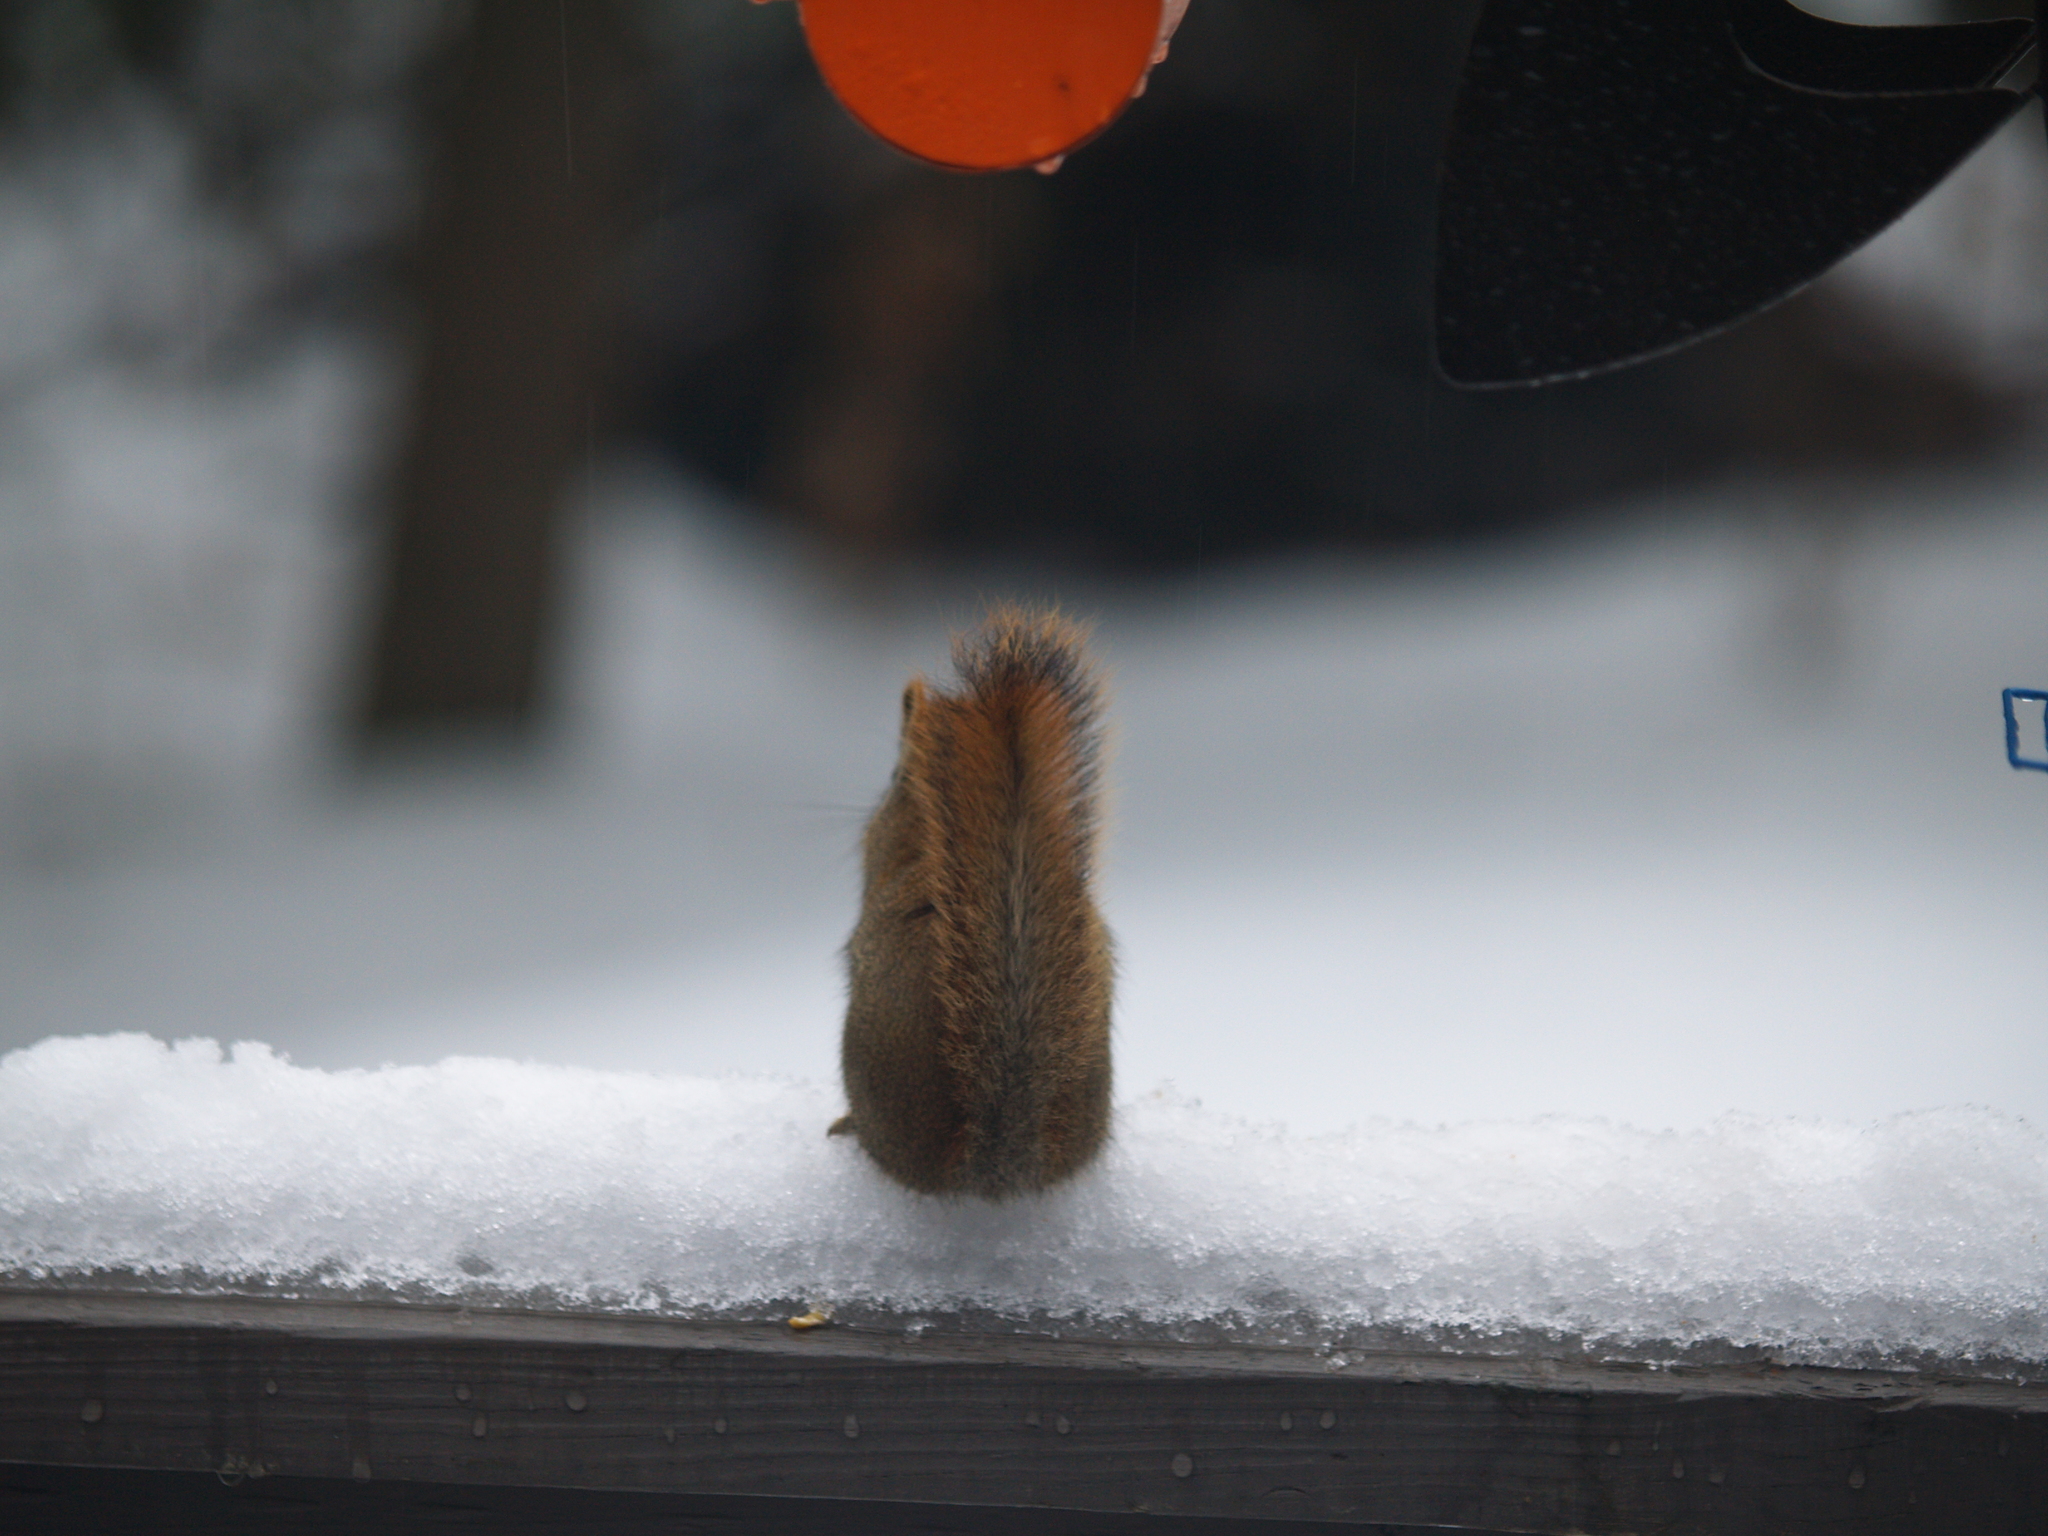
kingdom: Animalia
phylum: Chordata
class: Mammalia
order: Rodentia
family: Sciuridae
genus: Tamiasciurus
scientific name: Tamiasciurus hudsonicus
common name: Red squirrel
